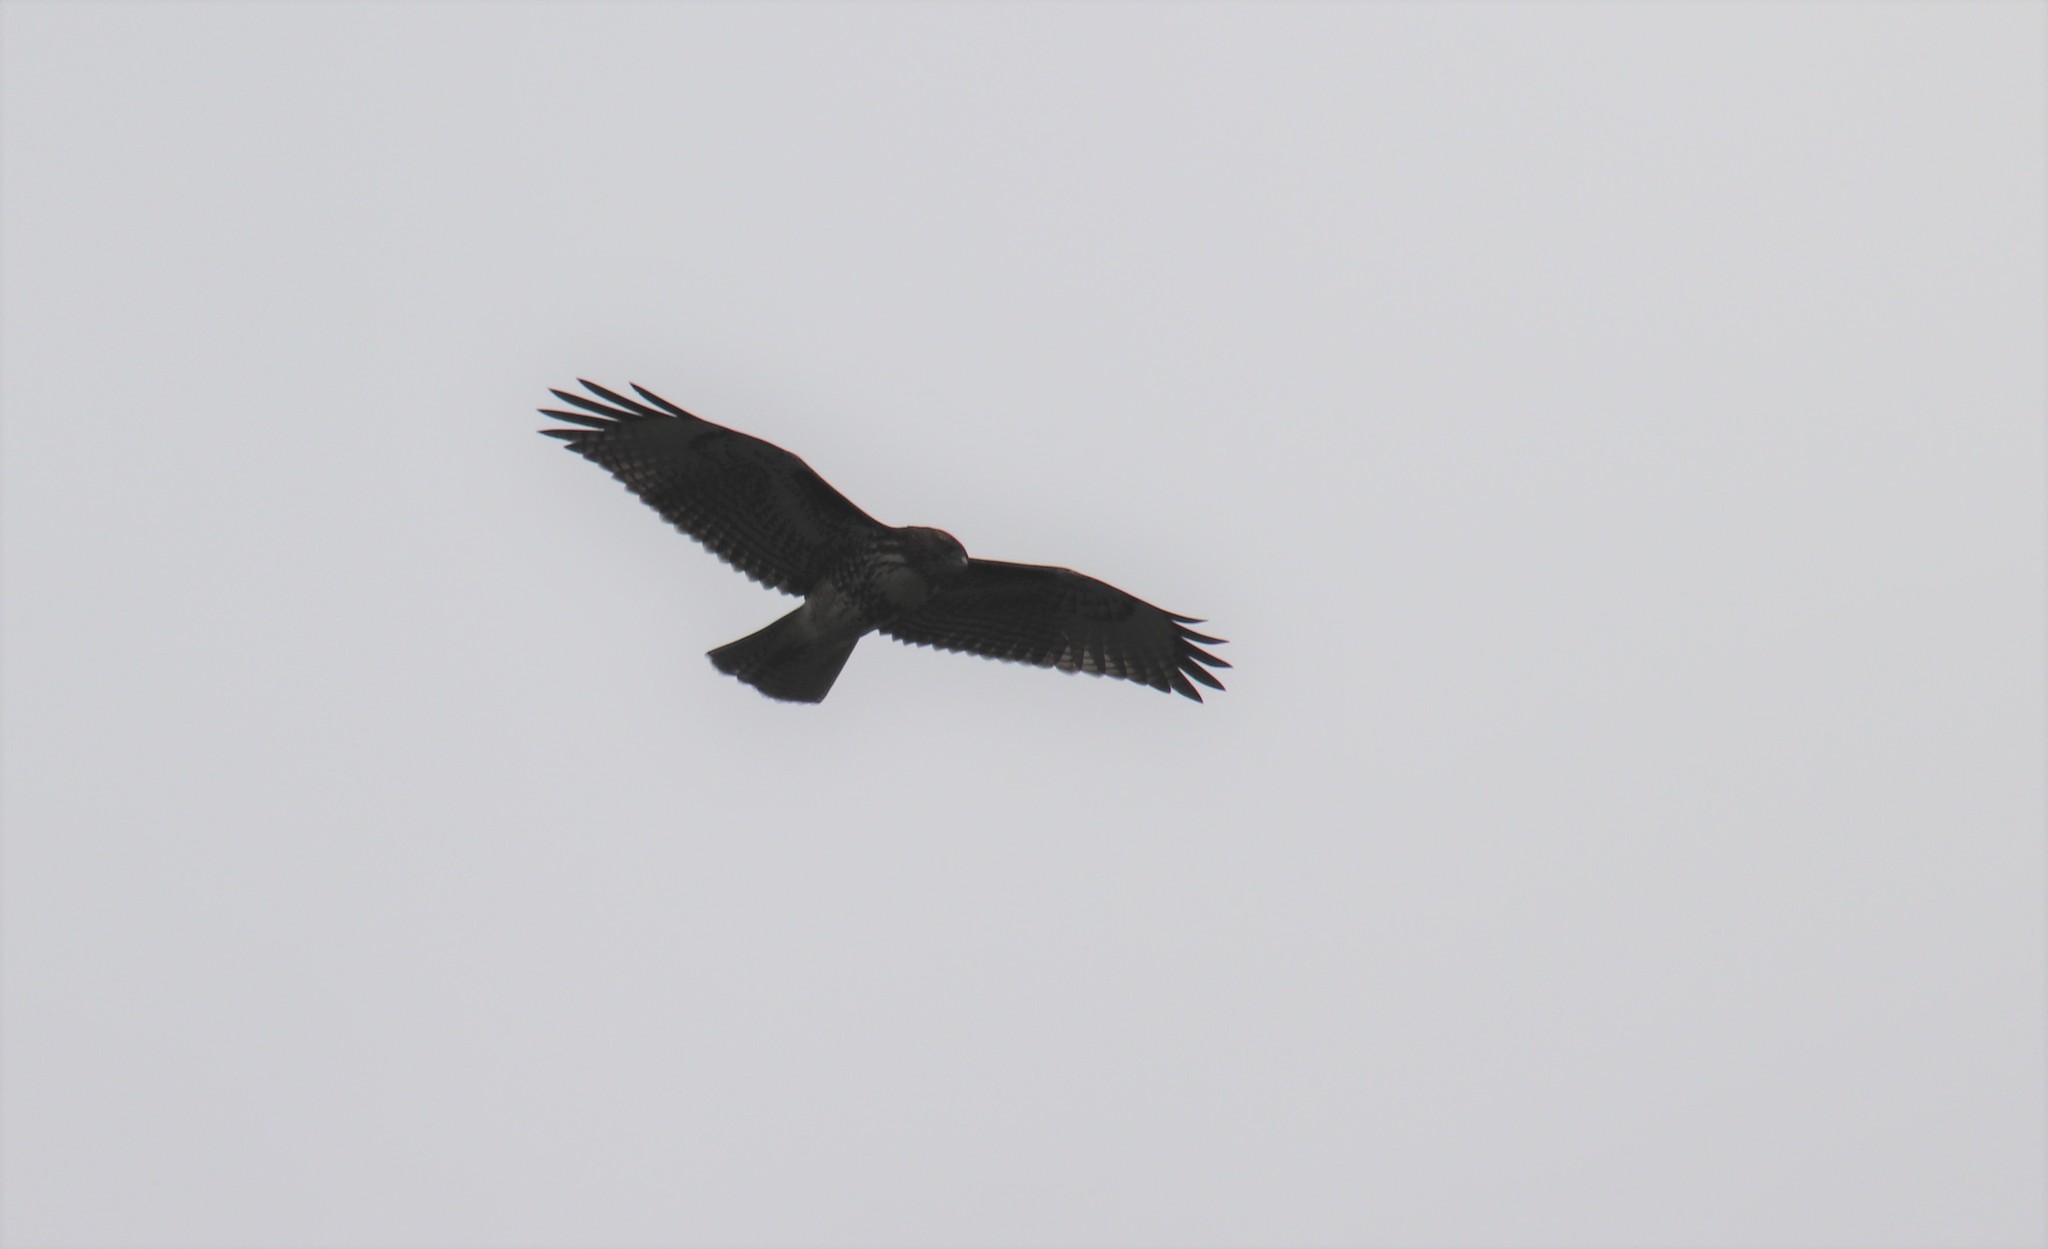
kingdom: Animalia
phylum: Chordata
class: Aves
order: Accipitriformes
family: Accipitridae
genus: Buteo
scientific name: Buteo jamaicensis
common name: Red-tailed hawk
